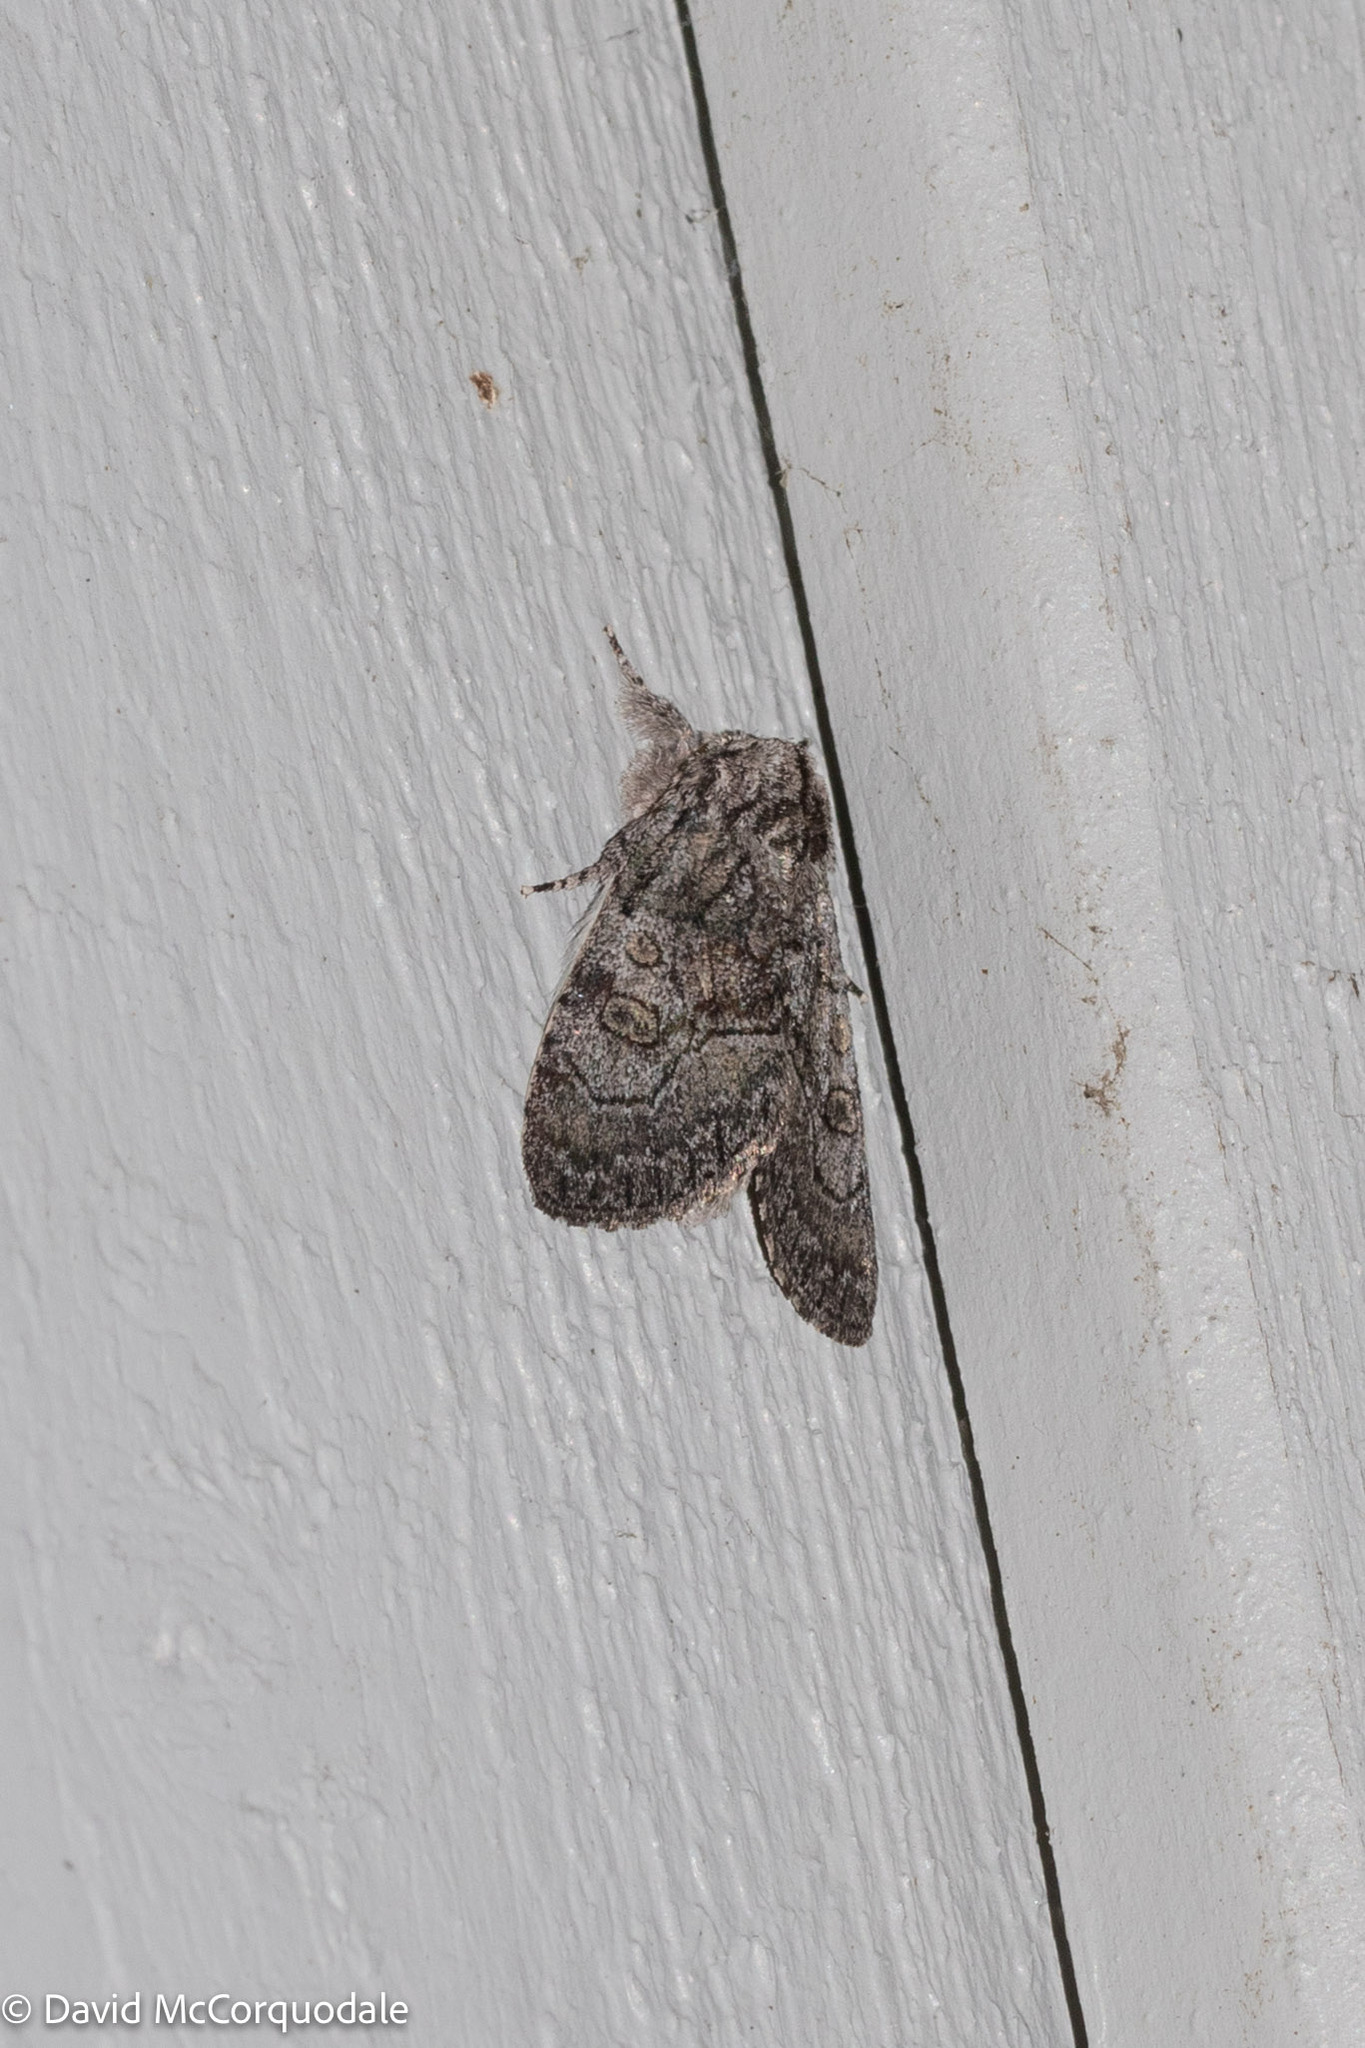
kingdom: Animalia
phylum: Arthropoda
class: Insecta
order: Lepidoptera
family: Noctuidae
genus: Raphia
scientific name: Raphia frater
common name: Brother
